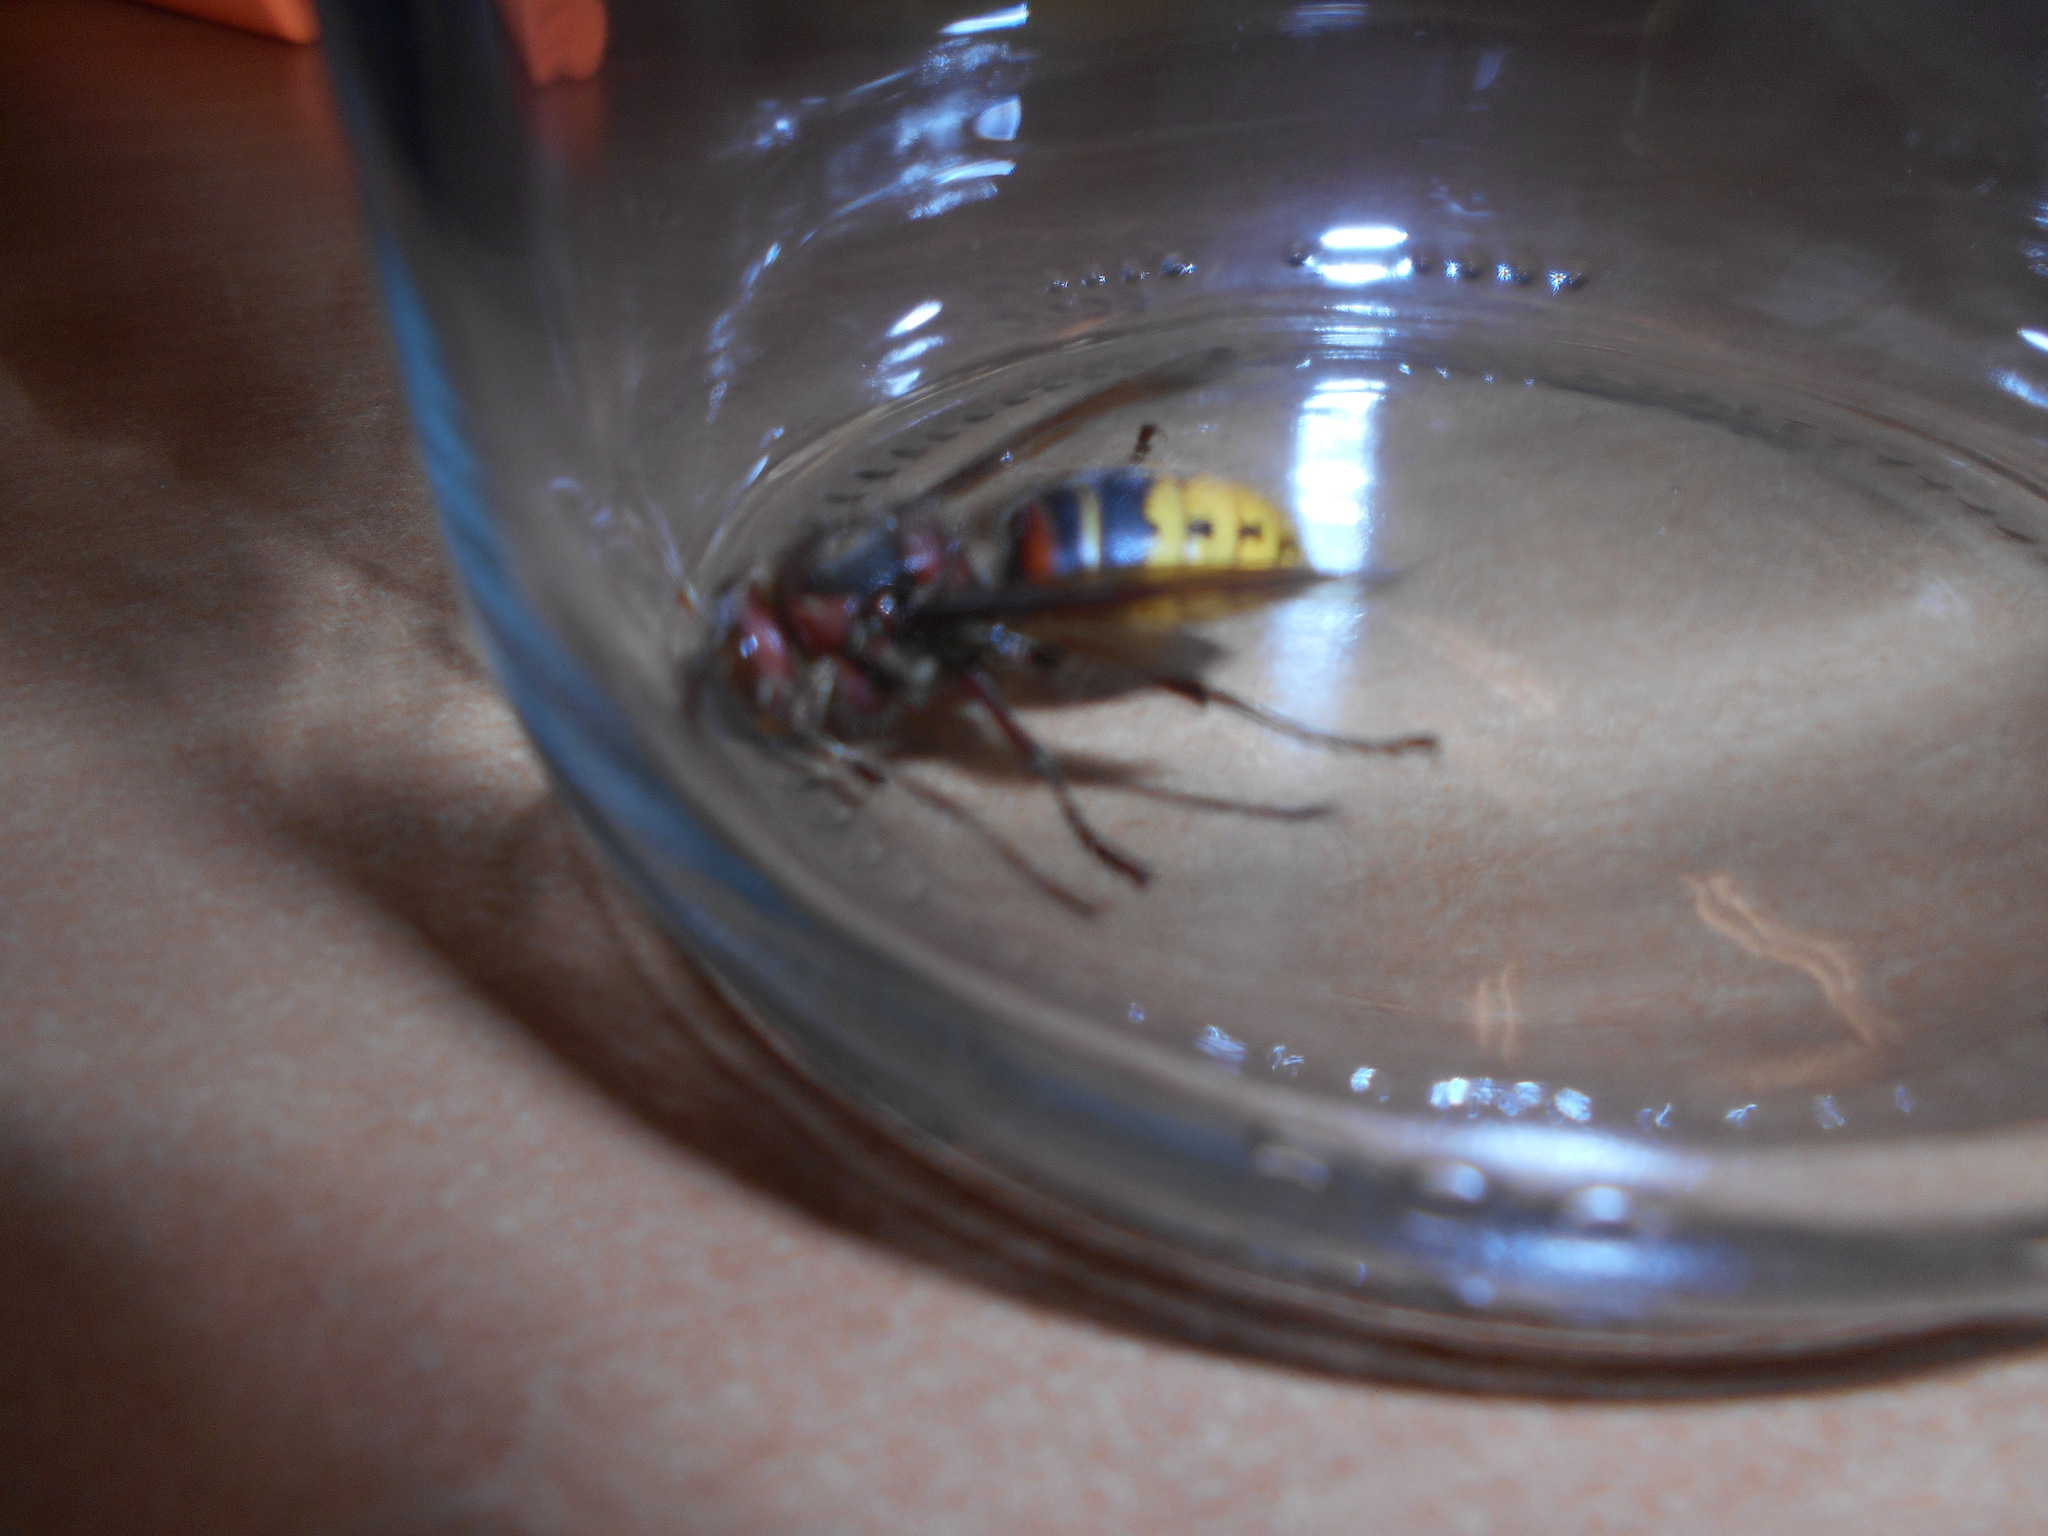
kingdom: Animalia
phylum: Arthropoda
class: Insecta
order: Hymenoptera
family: Vespidae
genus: Vespa
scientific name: Vespa crabro
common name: Hornet
